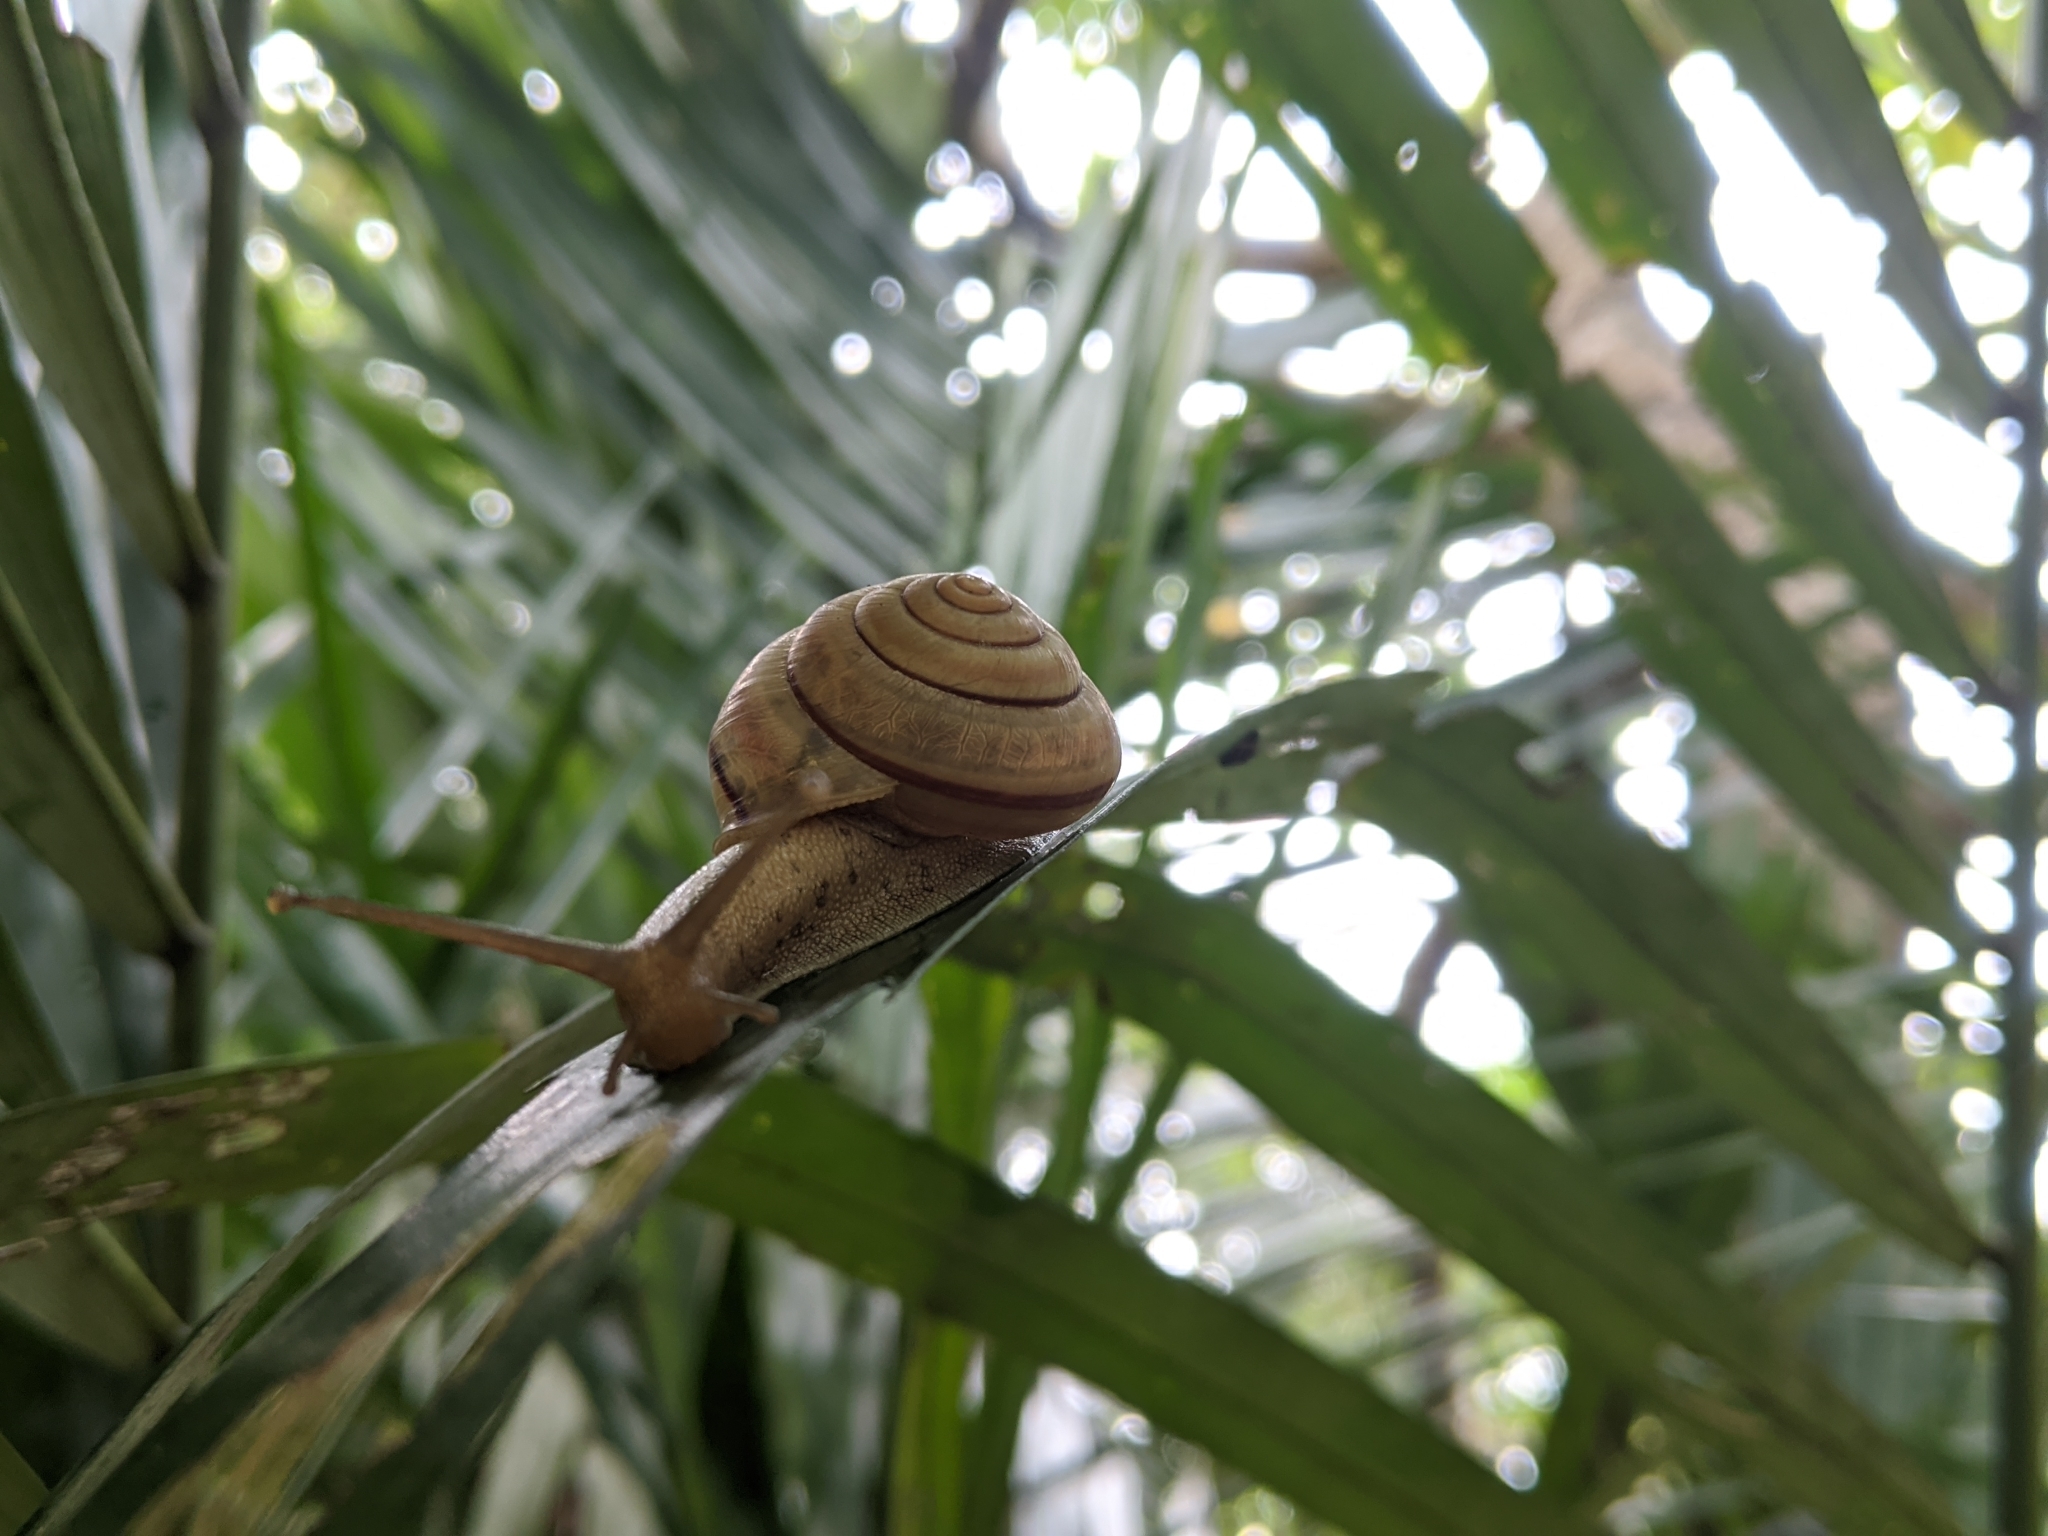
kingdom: Animalia
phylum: Mollusca
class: Gastropoda
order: Stylommatophora
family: Camaenidae
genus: Satsuma
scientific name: Satsuma wenshini
